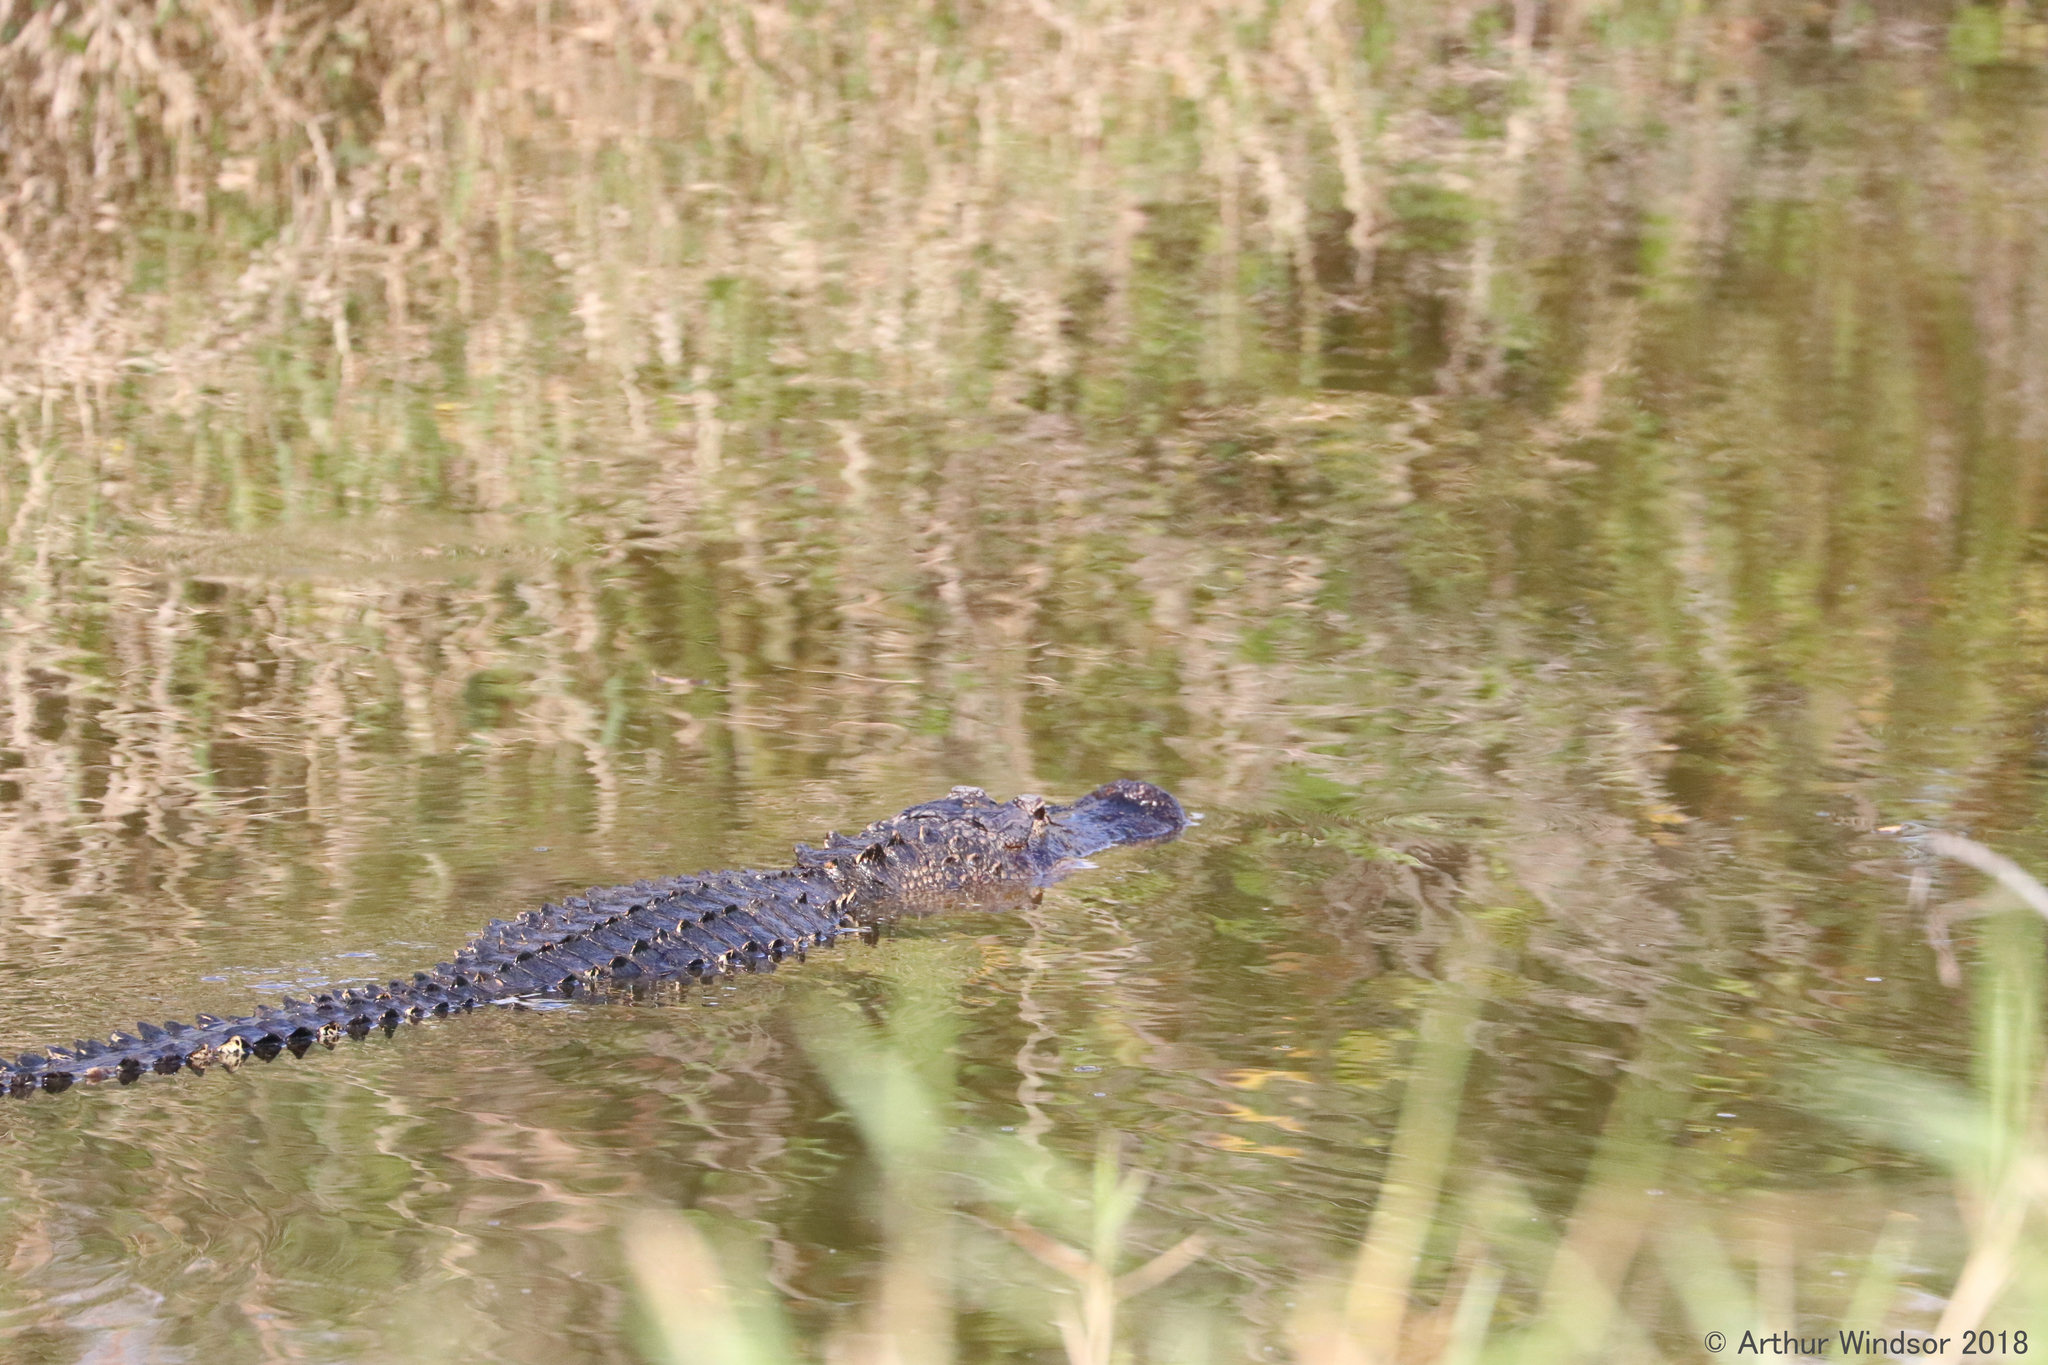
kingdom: Animalia
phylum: Chordata
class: Crocodylia
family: Alligatoridae
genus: Alligator
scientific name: Alligator mississippiensis
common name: American alligator
